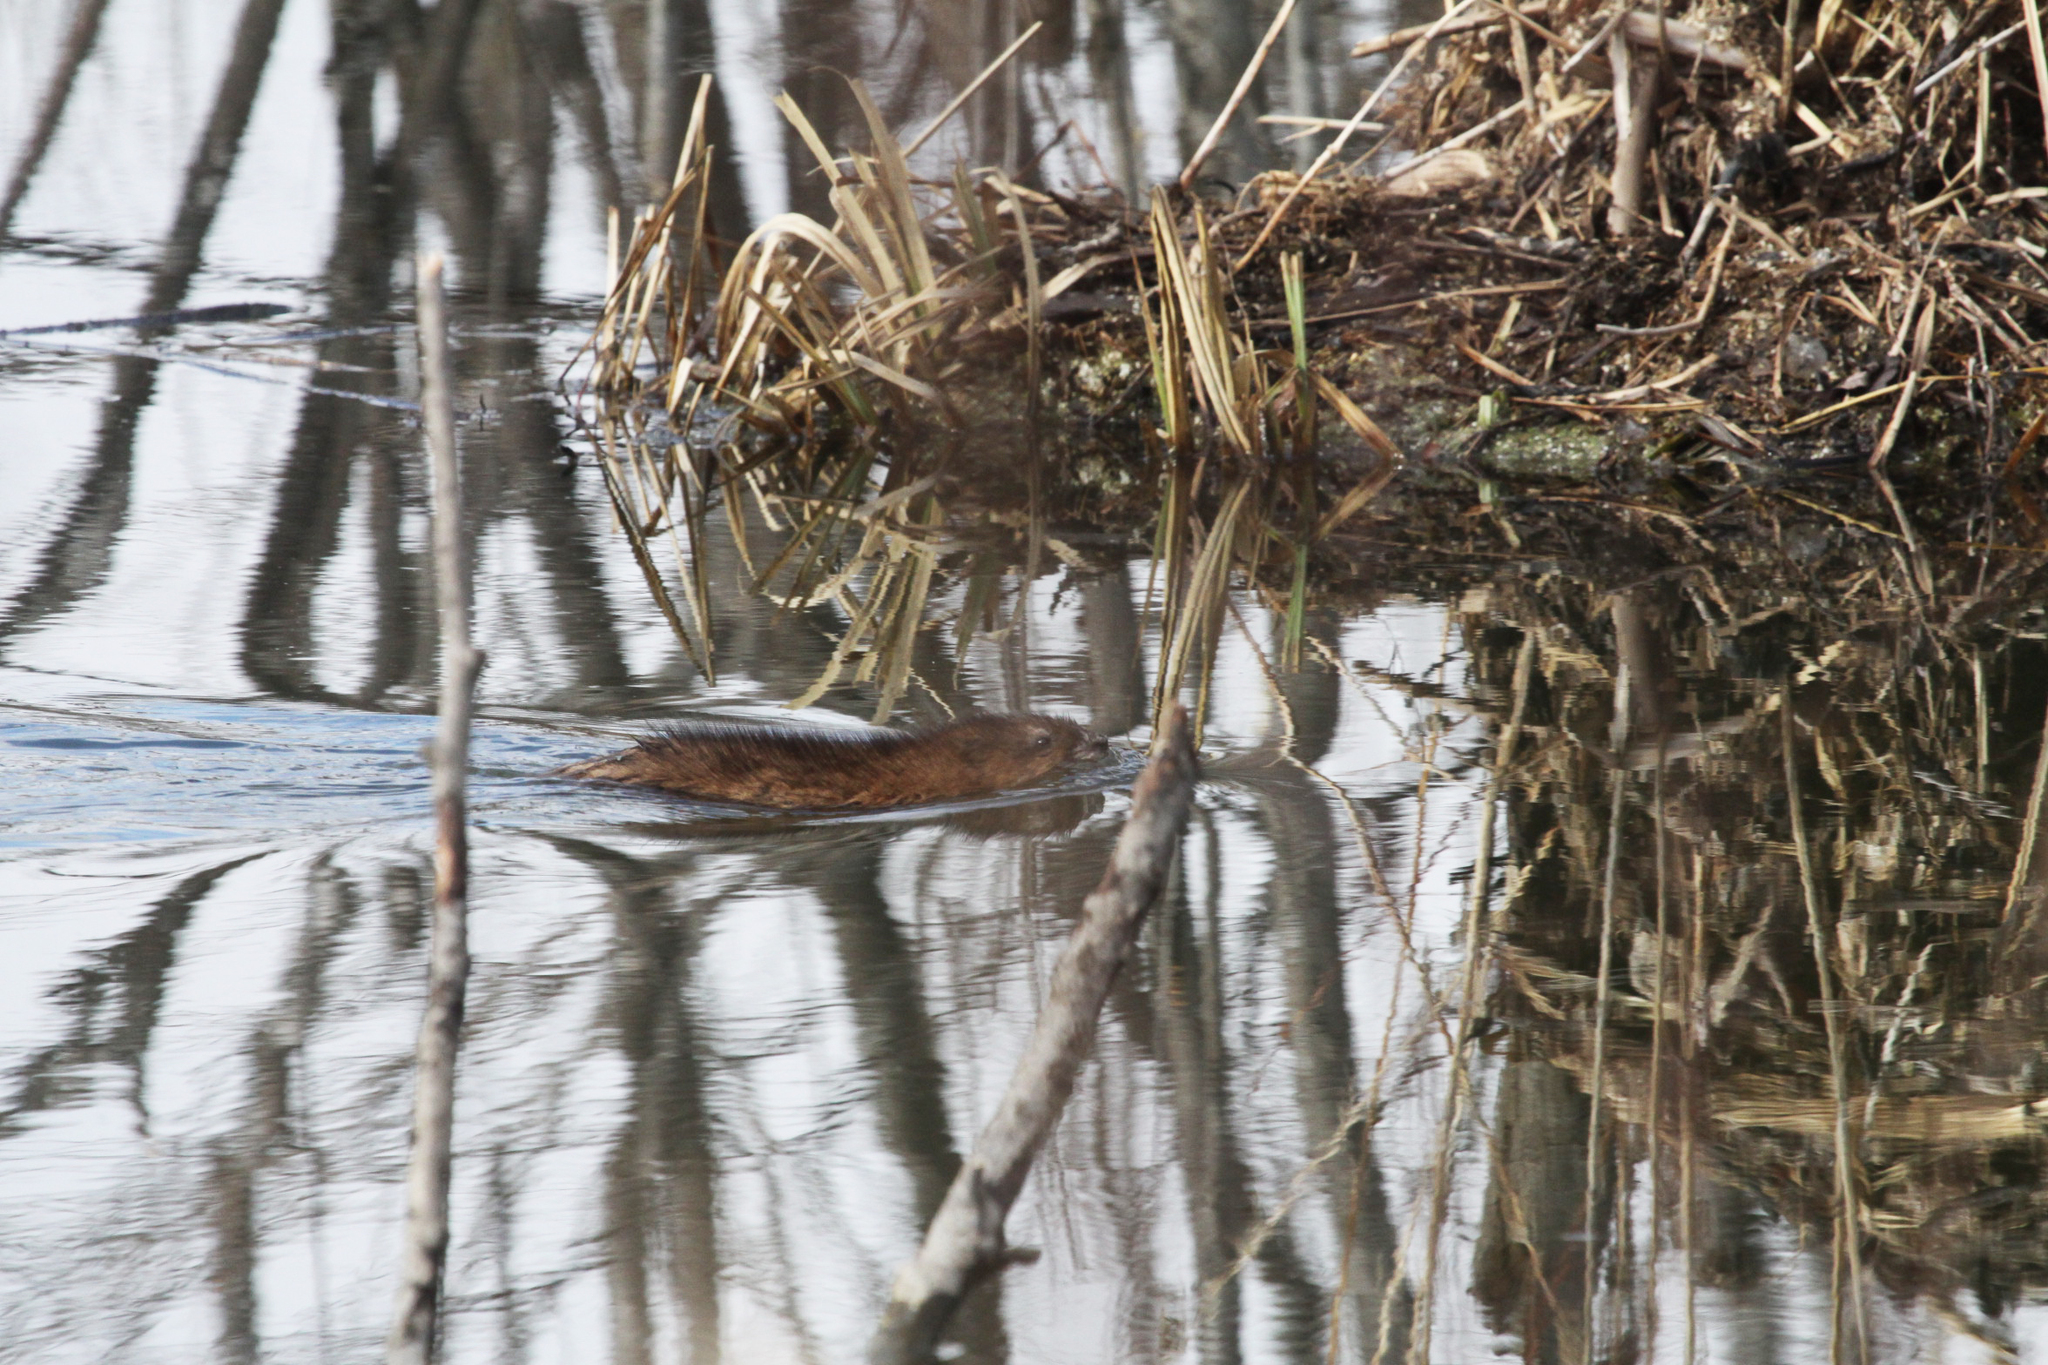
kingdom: Animalia
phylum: Chordata
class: Mammalia
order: Rodentia
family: Cricetidae
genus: Ondatra
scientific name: Ondatra zibethicus
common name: Muskrat
